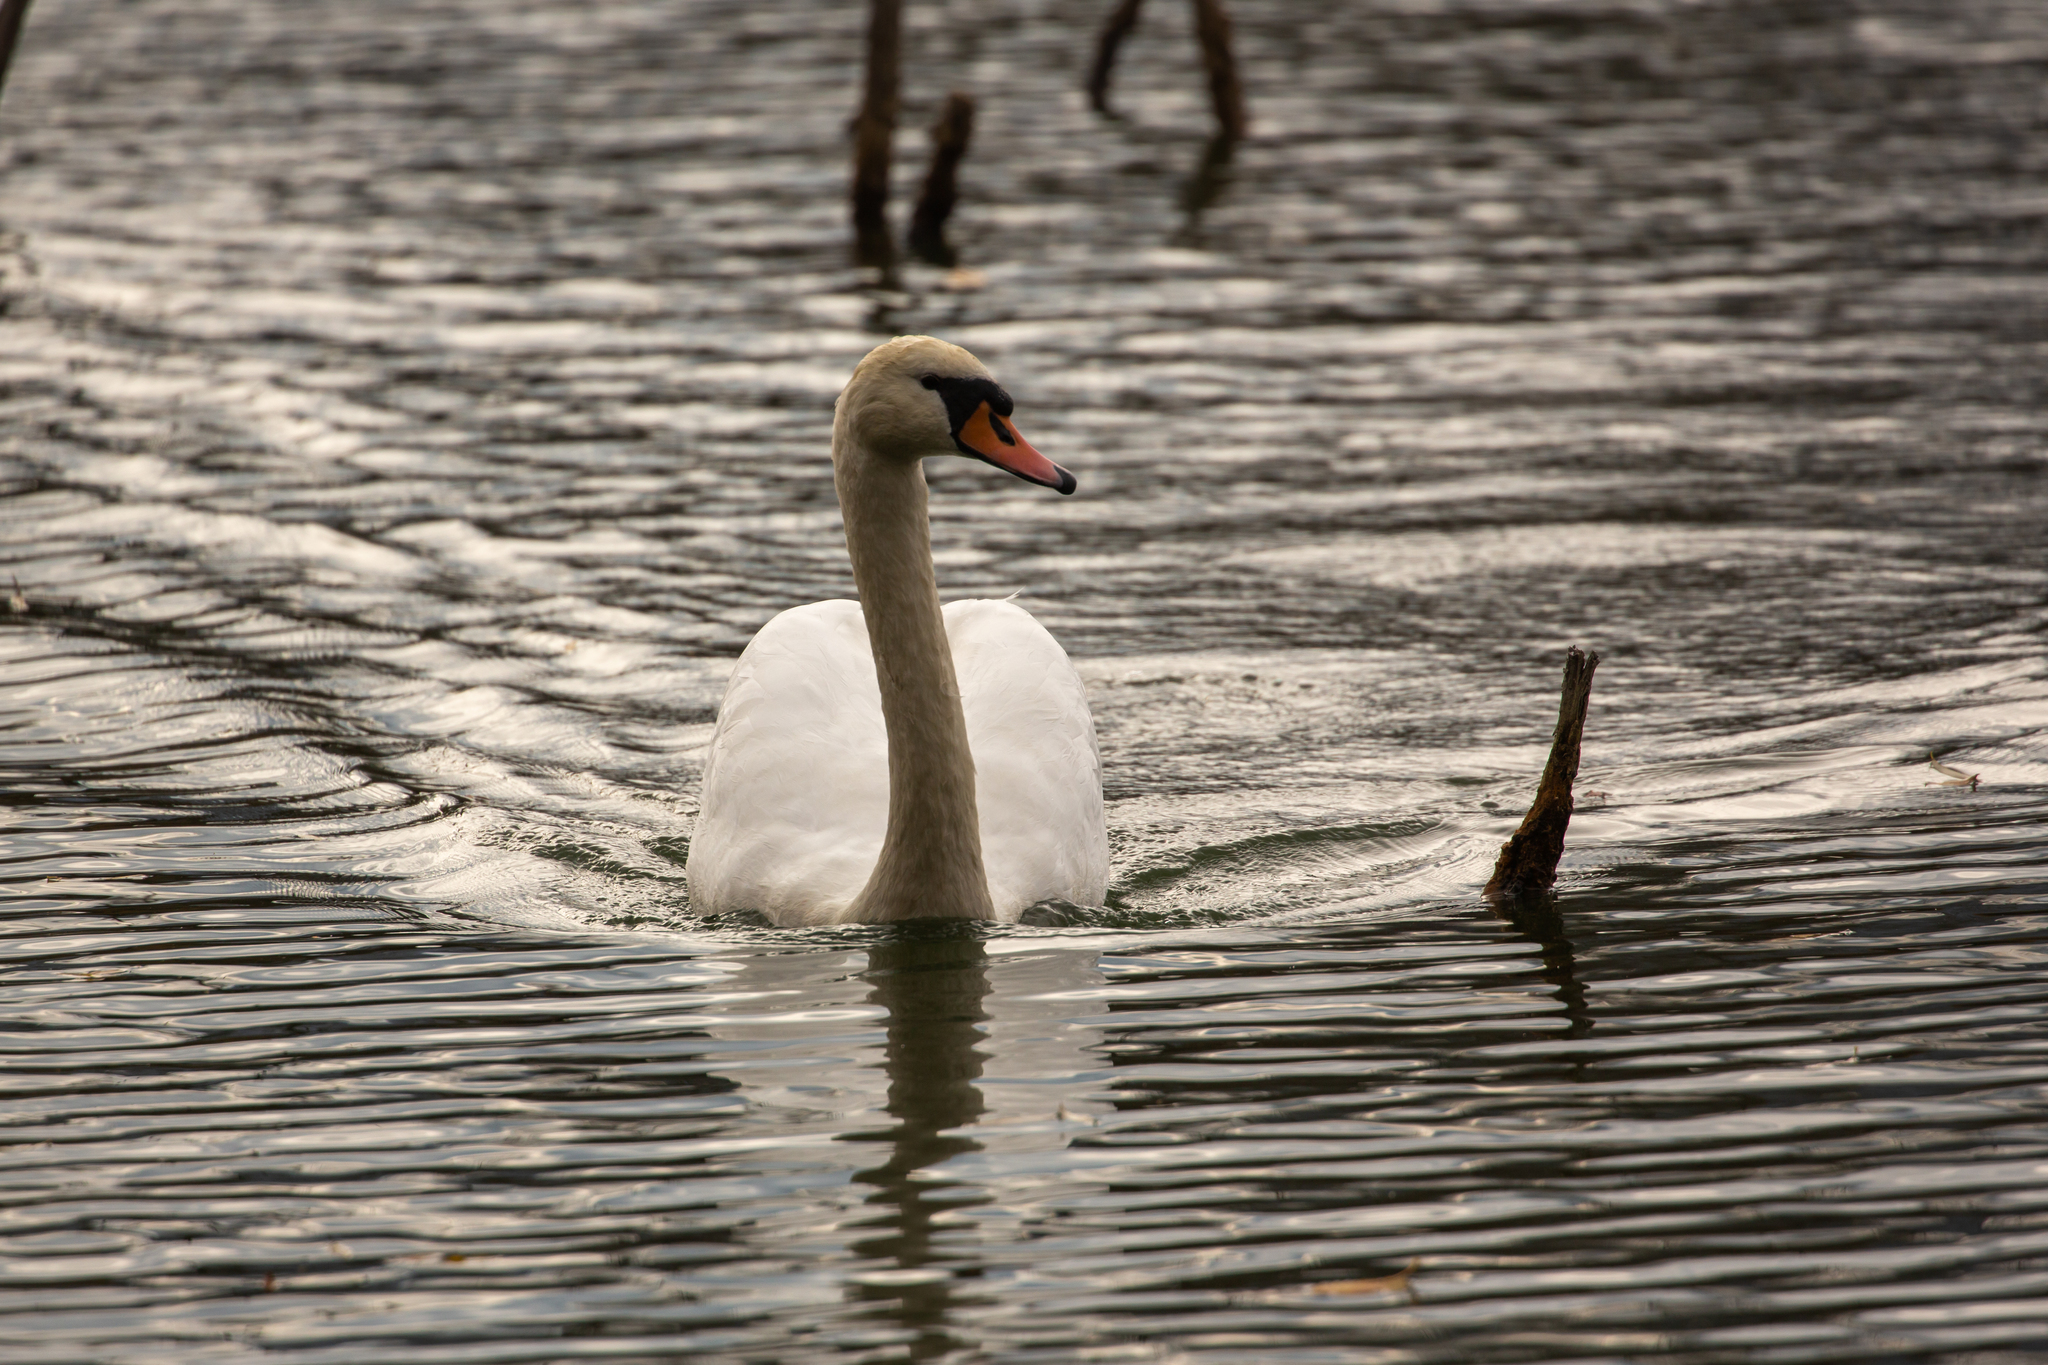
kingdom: Animalia
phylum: Chordata
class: Aves
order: Anseriformes
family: Anatidae
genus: Cygnus
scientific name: Cygnus olor
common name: Mute swan
